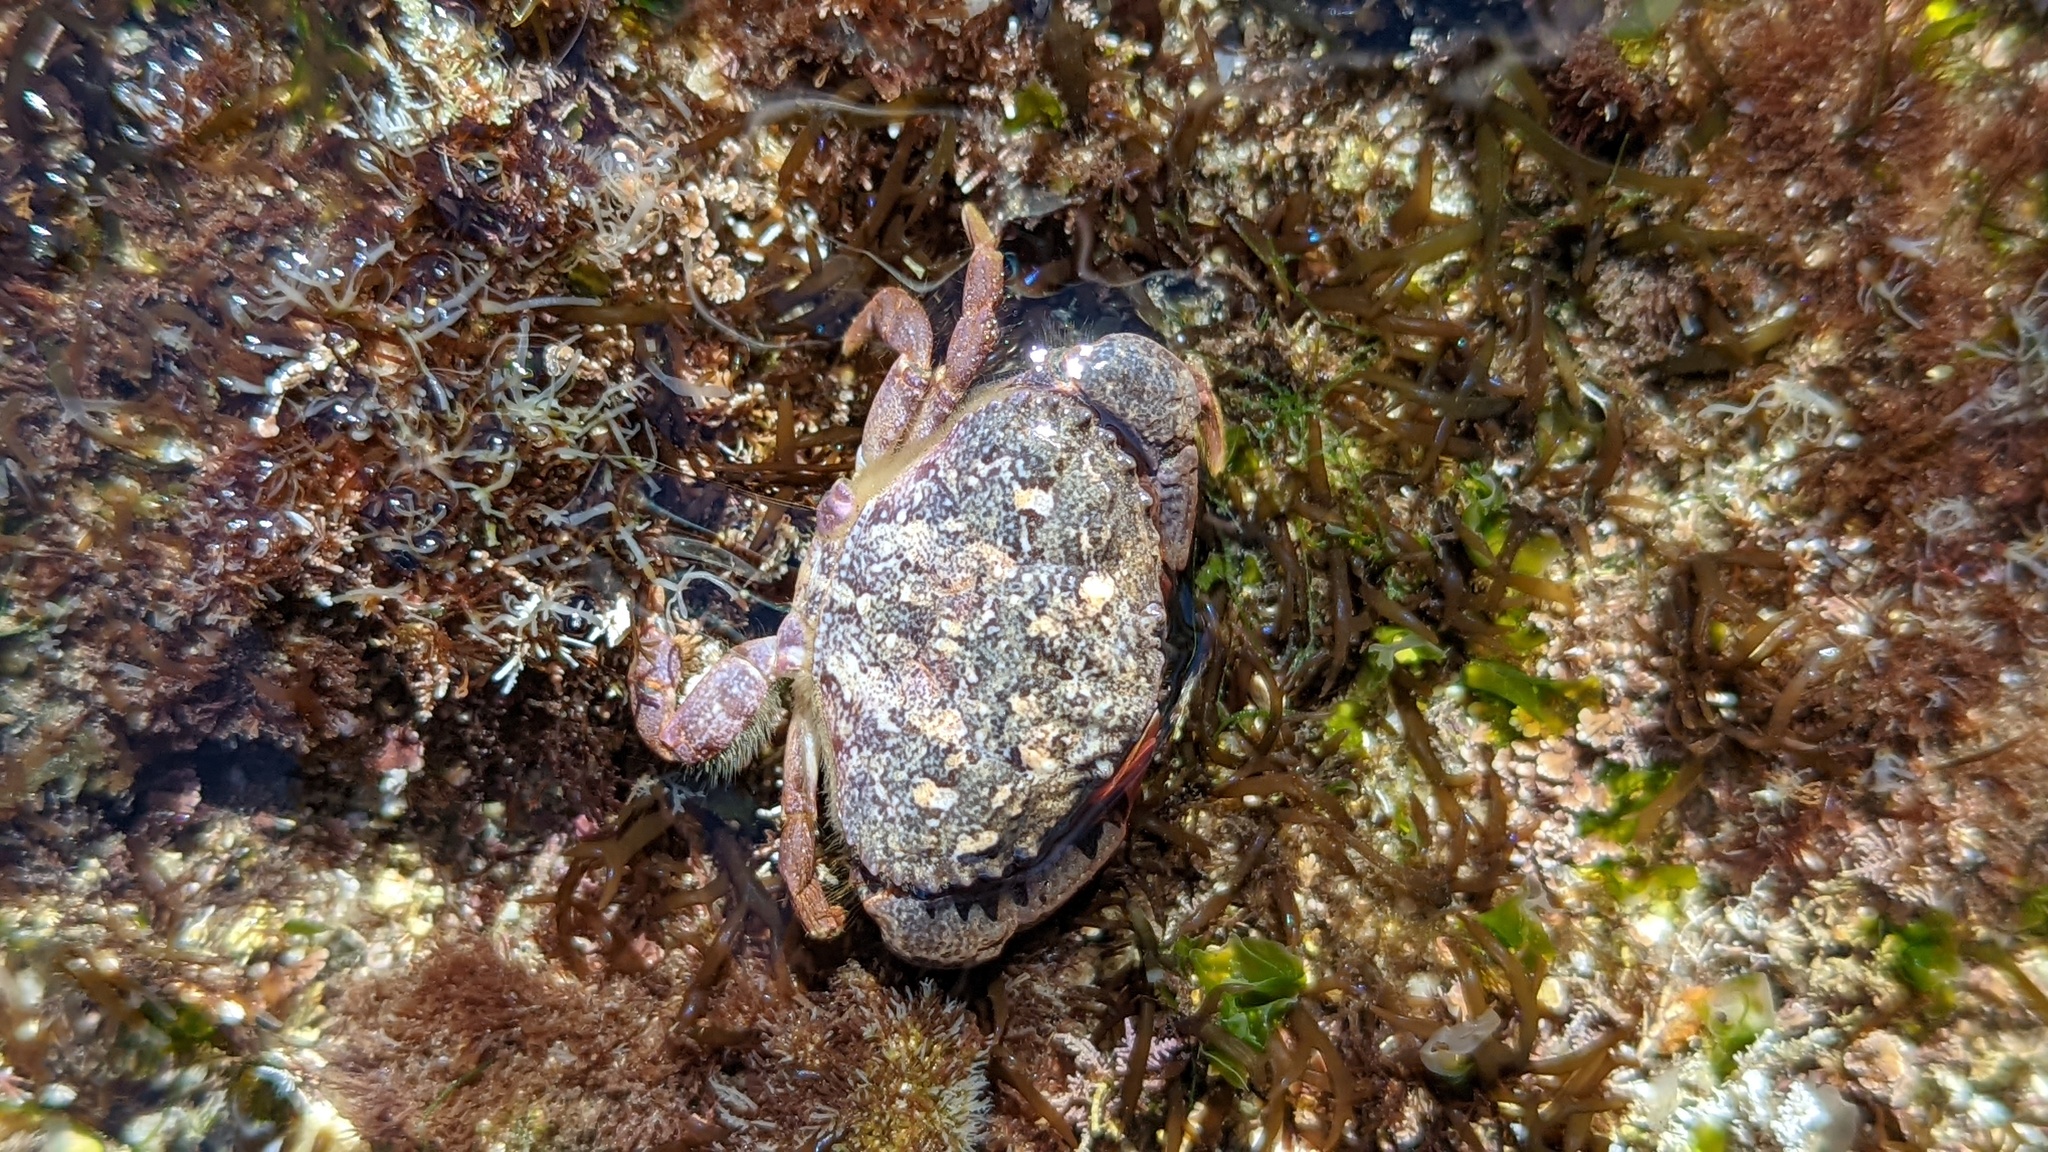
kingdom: Animalia
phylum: Arthropoda
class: Malacostraca
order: Decapoda
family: Xanthidae
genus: Cycloxanthops
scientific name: Cycloxanthops novemdentatus
